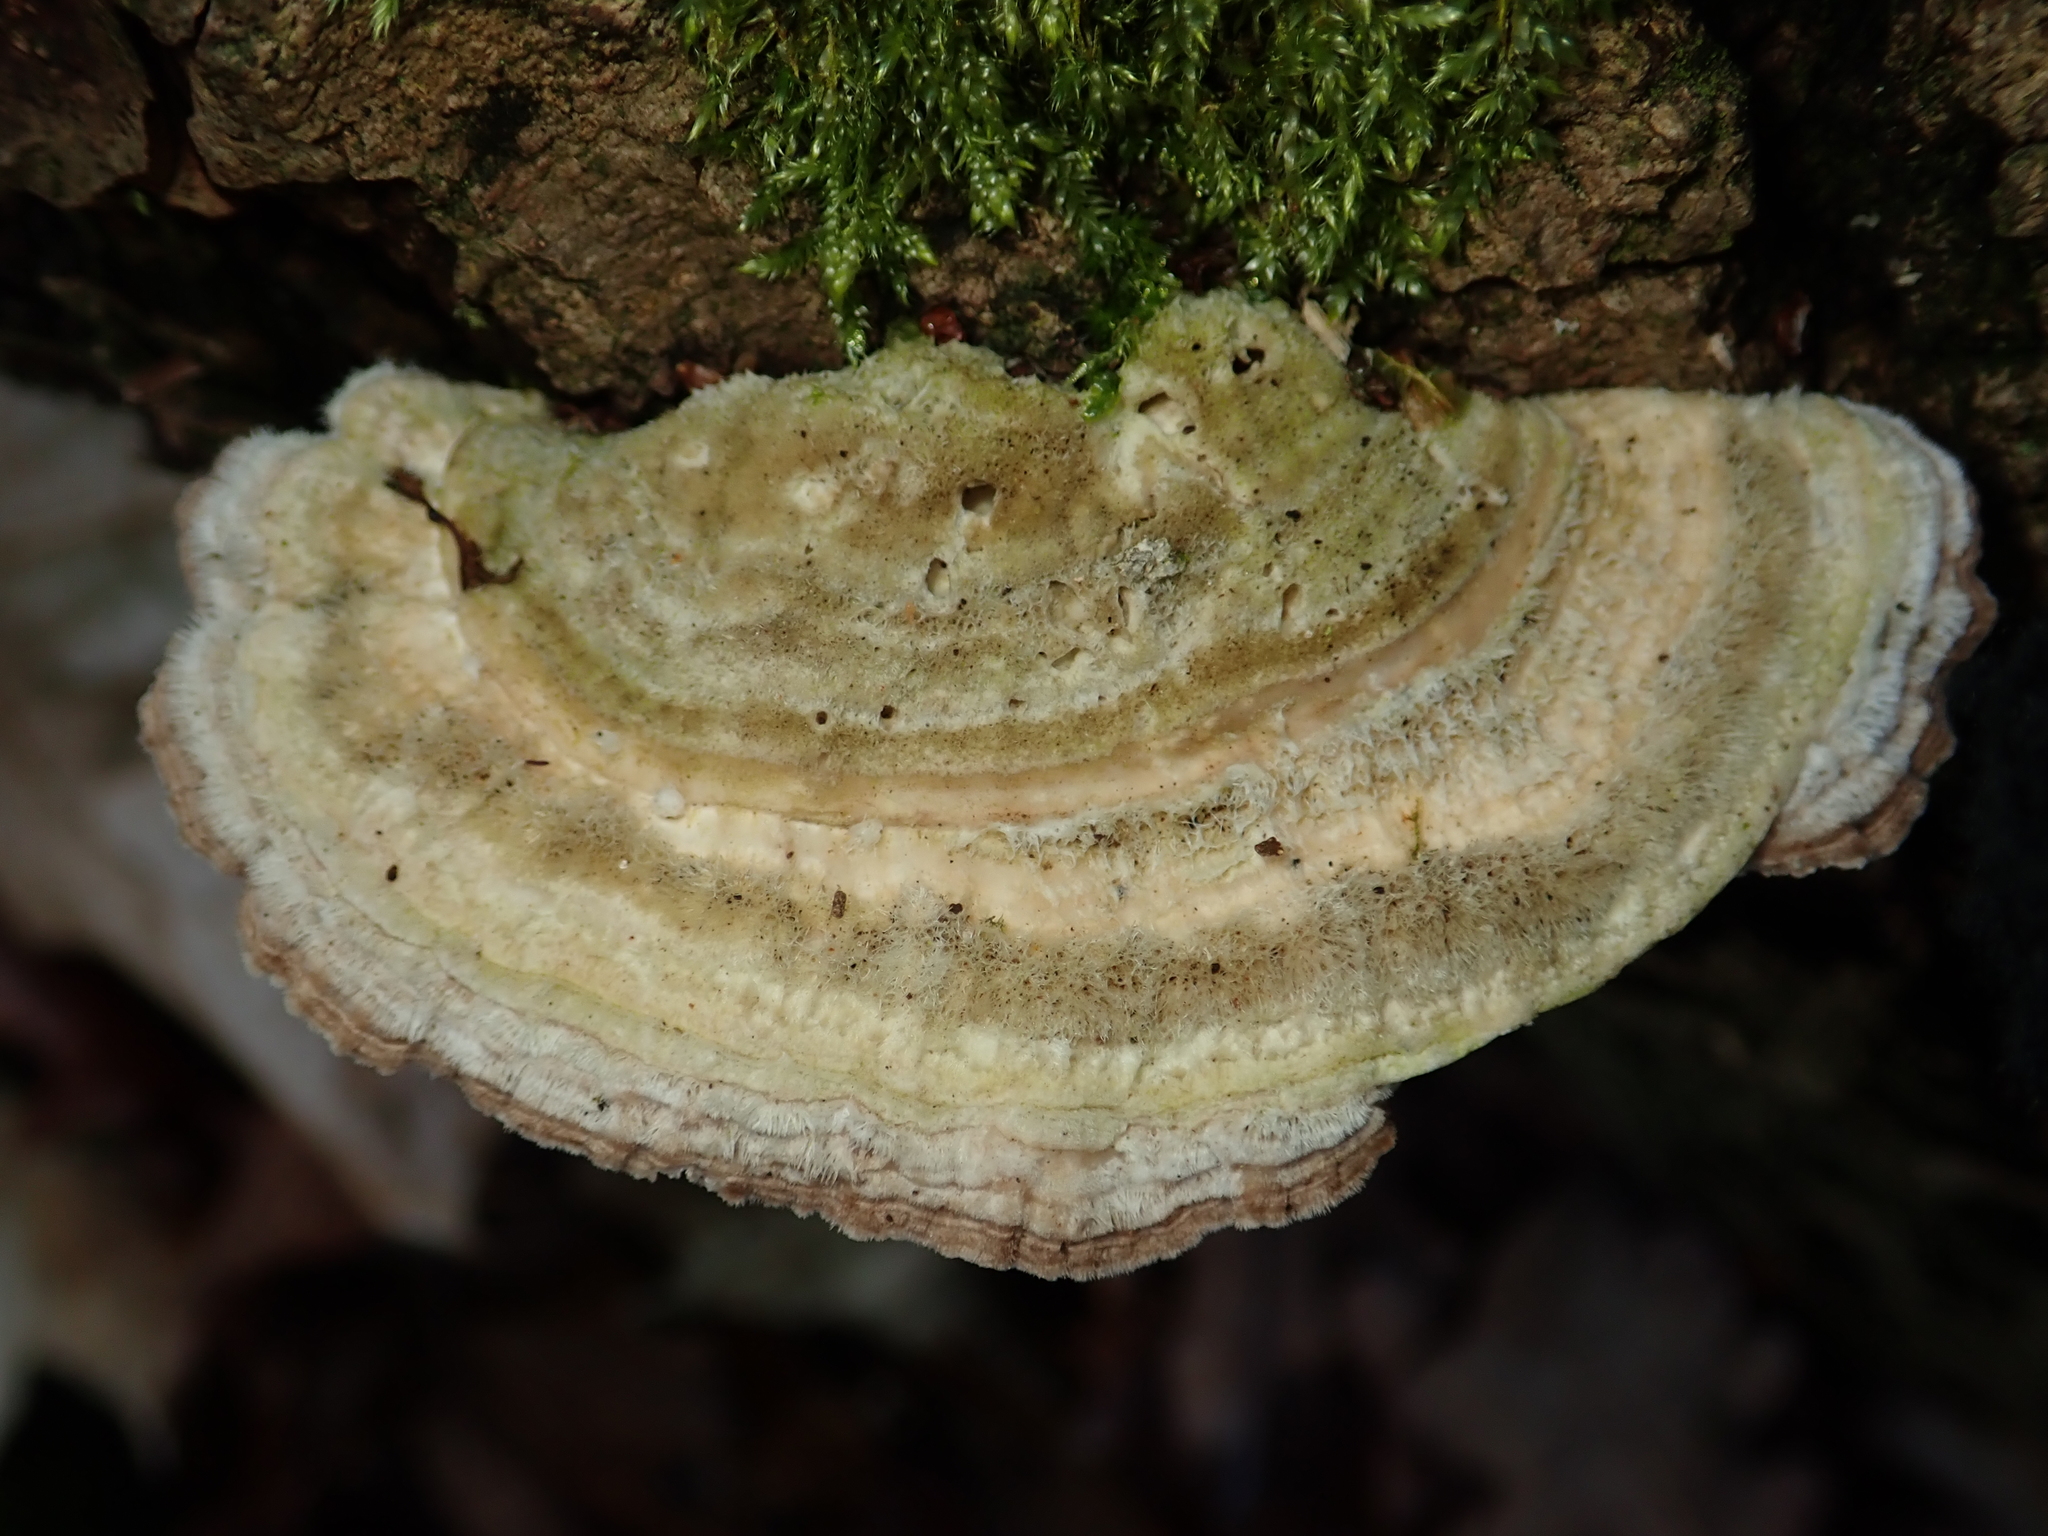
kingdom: Fungi
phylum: Basidiomycota
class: Agaricomycetes
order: Polyporales
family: Polyporaceae
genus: Lenzites
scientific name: Lenzites betulinus
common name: Birch mazegill
